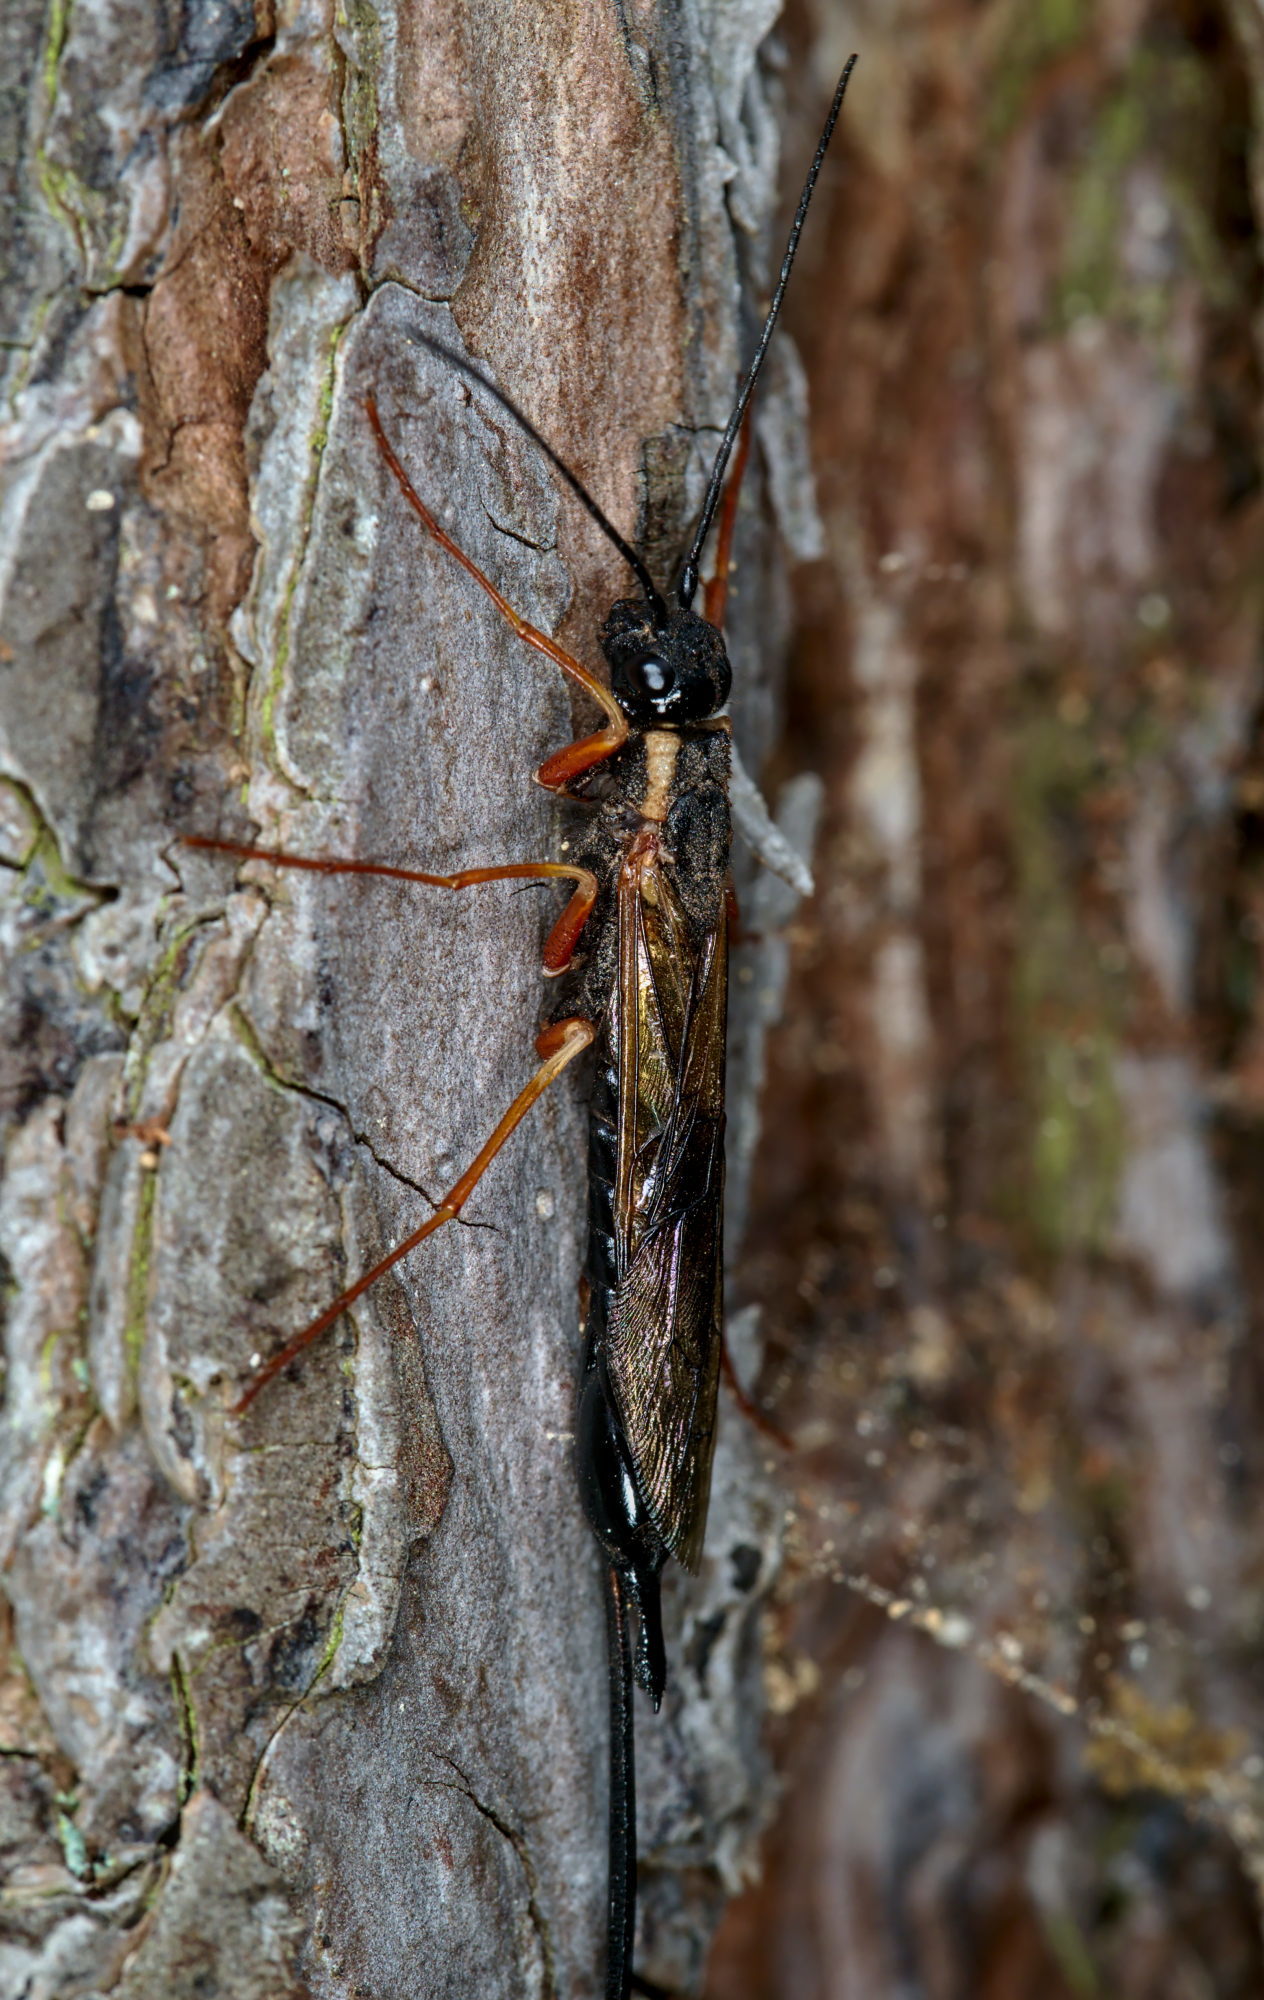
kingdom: Animalia
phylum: Arthropoda
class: Insecta
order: Hymenoptera
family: Siricidae
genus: Xeris
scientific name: Xeris spectrum
